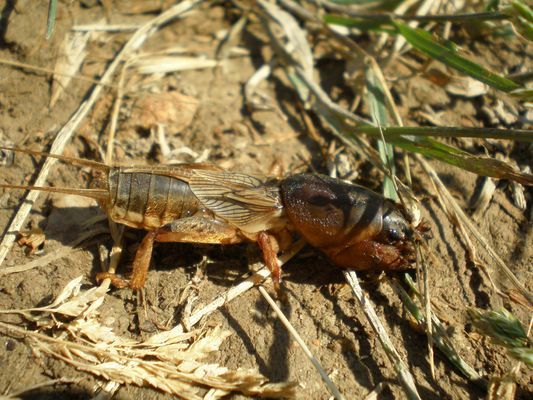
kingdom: Animalia
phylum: Arthropoda
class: Insecta
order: Orthoptera
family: Gryllotalpidae
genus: Gryllotalpa
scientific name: Gryllotalpa septemdecimchromosomica
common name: Seventeen-chromosome mole-cricket
